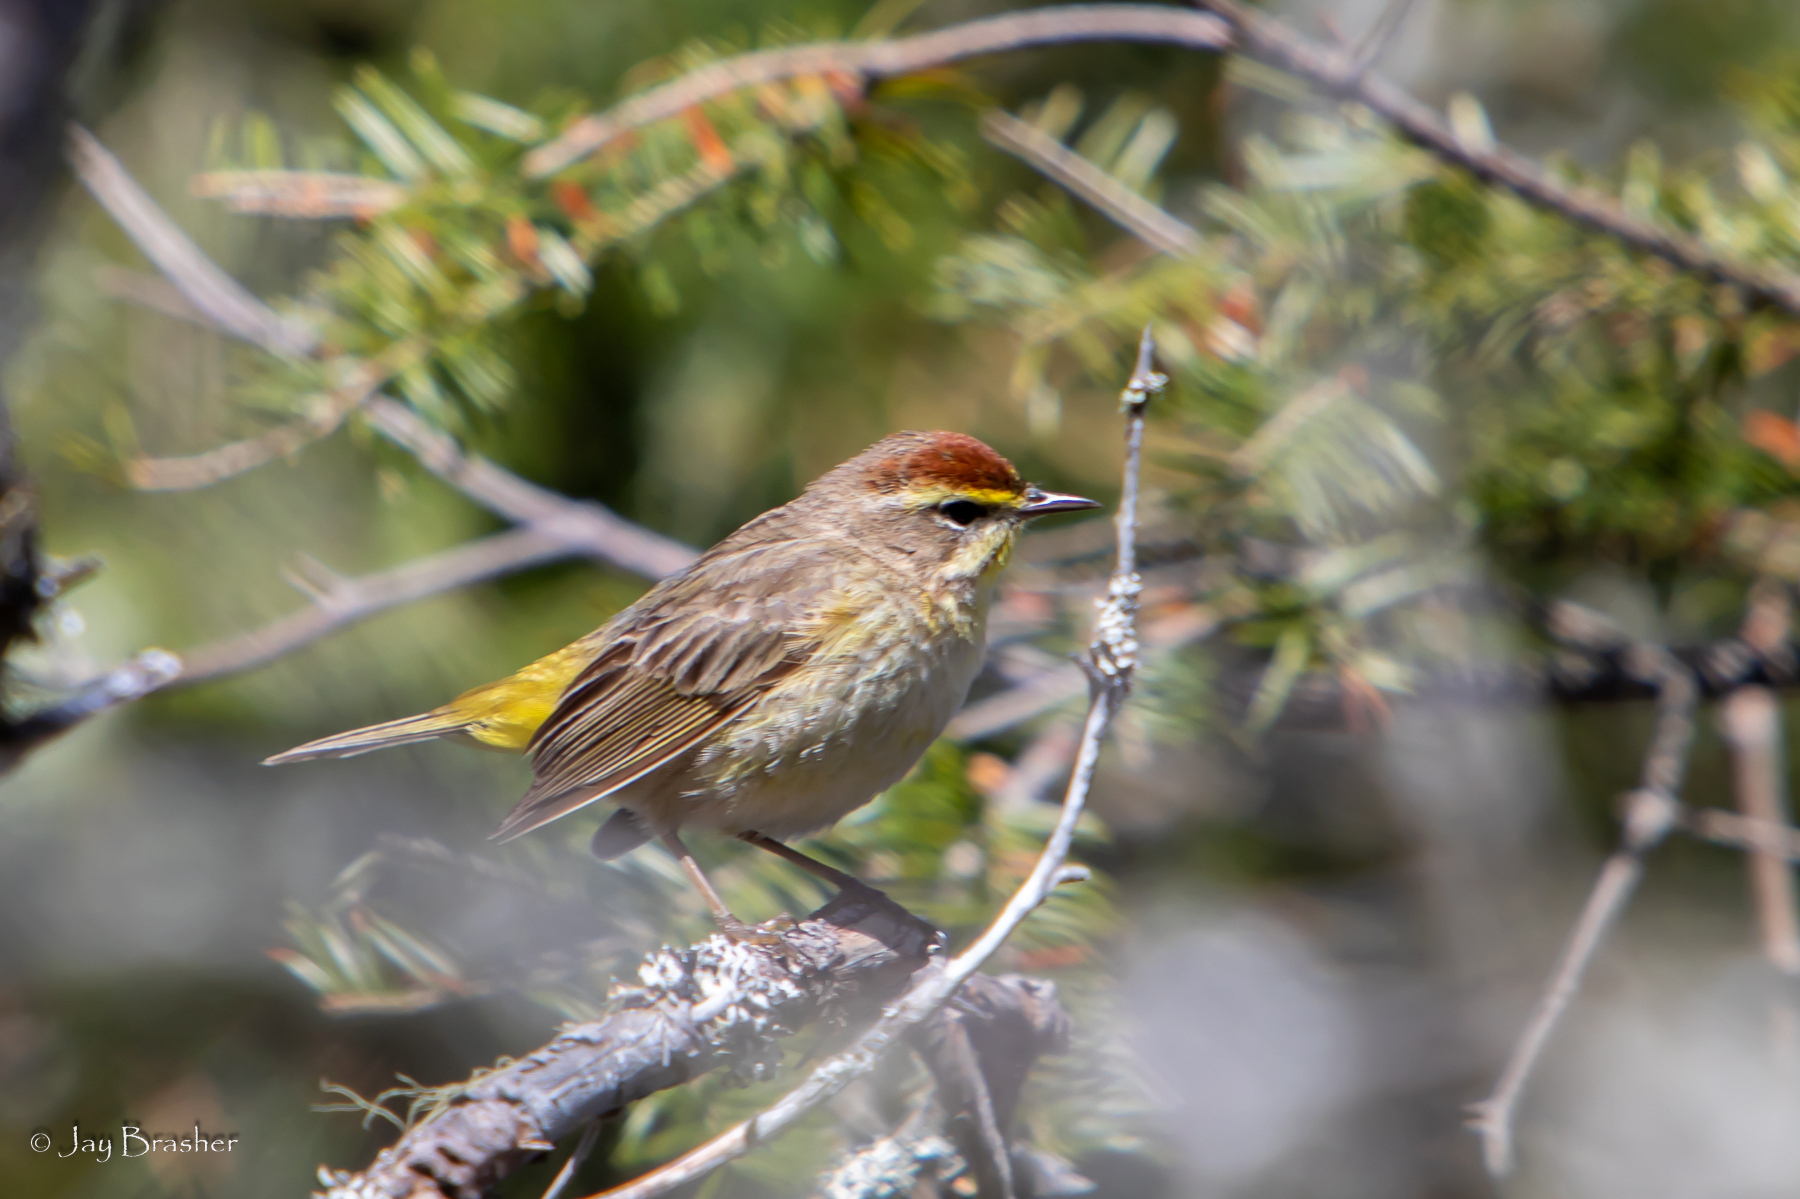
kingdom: Animalia
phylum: Chordata
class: Aves
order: Passeriformes
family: Parulidae
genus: Setophaga
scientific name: Setophaga palmarum
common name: Palm warbler
